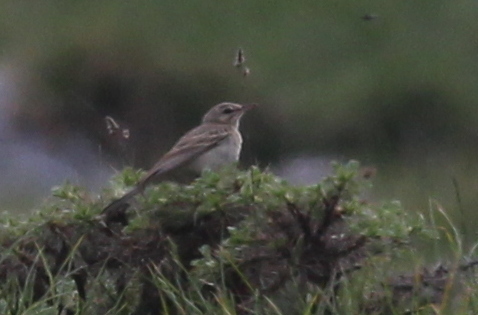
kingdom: Animalia
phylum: Chordata
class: Aves
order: Passeriformes
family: Motacillidae
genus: Anthus
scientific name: Anthus spinoletta
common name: Water pipit
